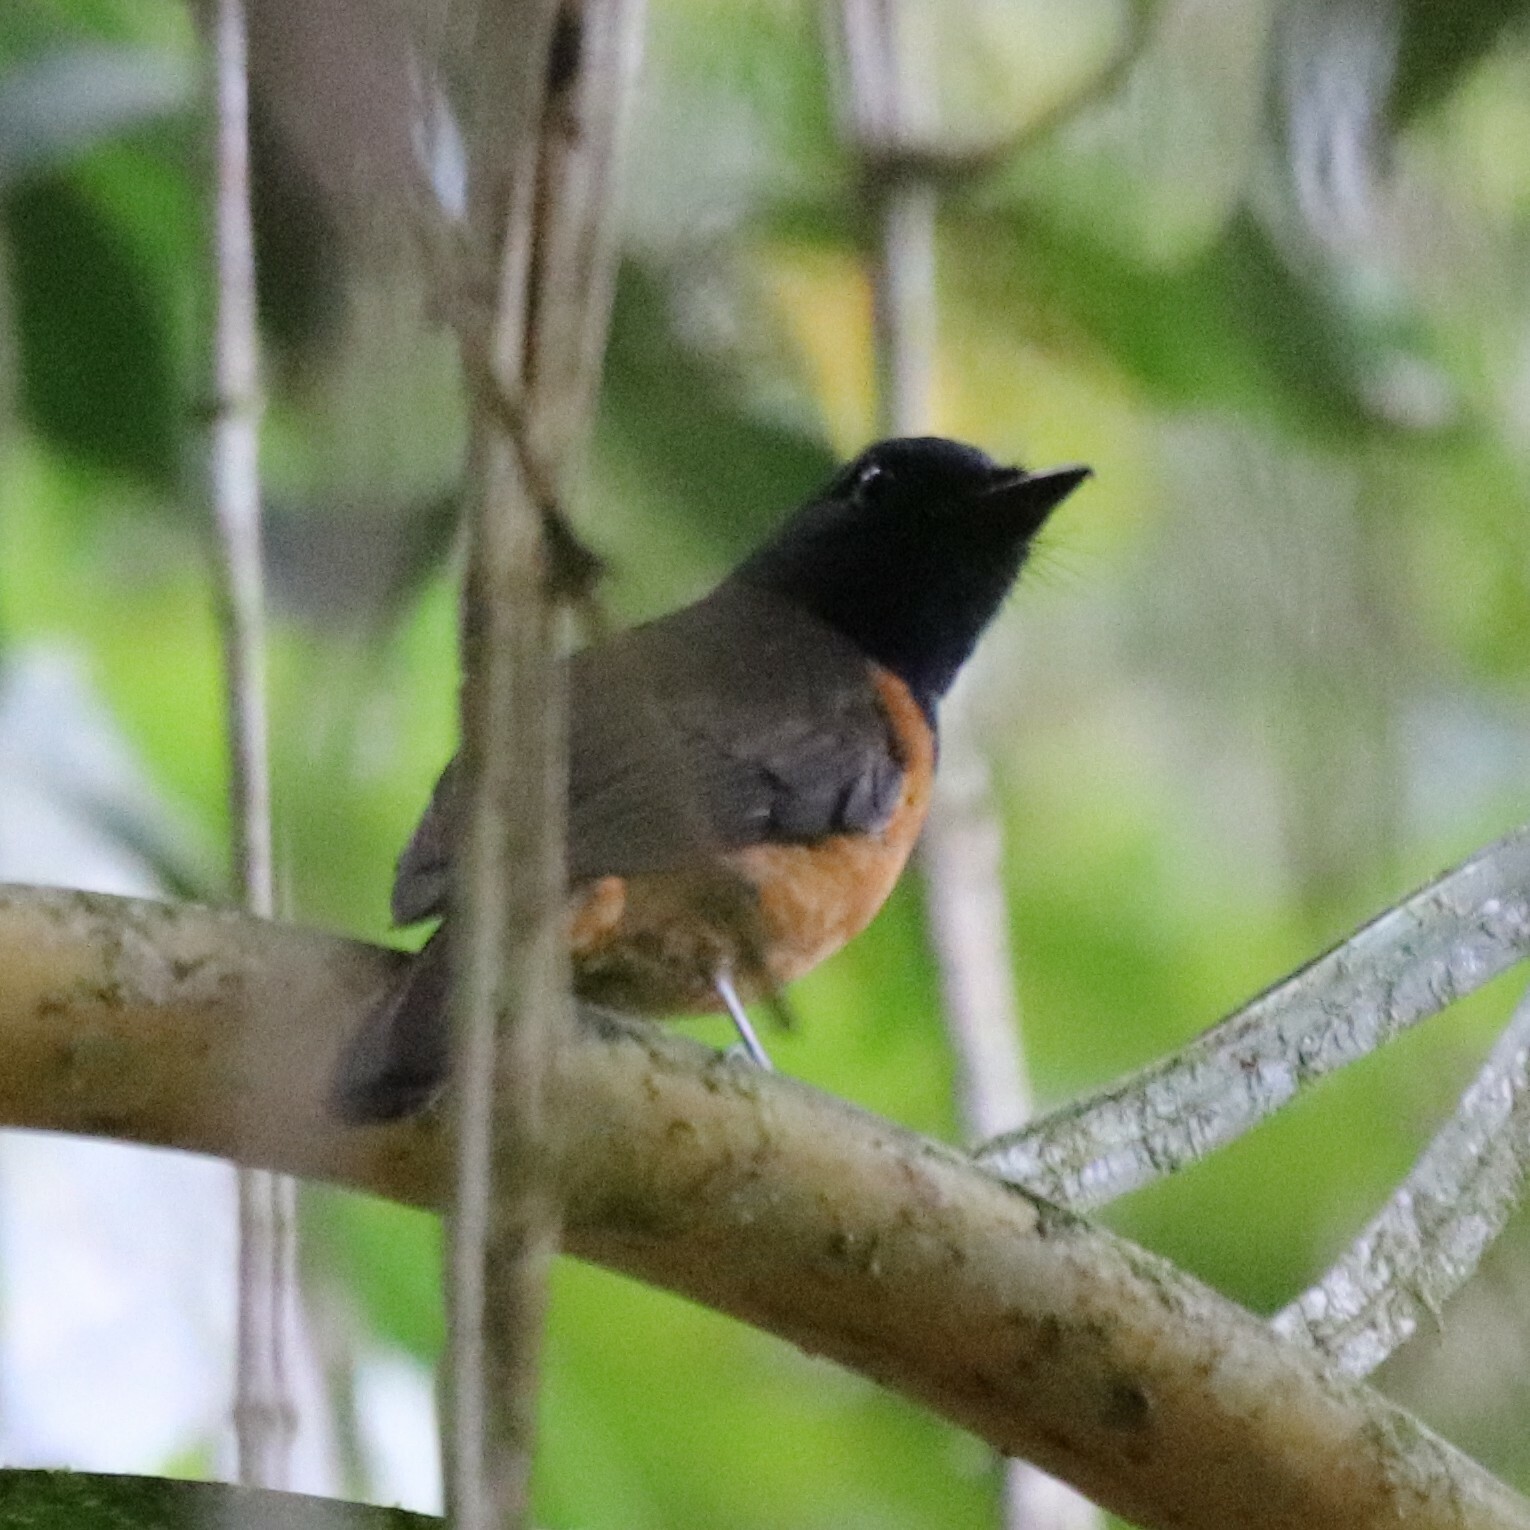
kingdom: Animalia
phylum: Chordata
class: Aves
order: Passeriformes
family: Muscicapidae
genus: Cyornis
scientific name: Cyornis hoevelli
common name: Blue-fronted blue flycatcher
